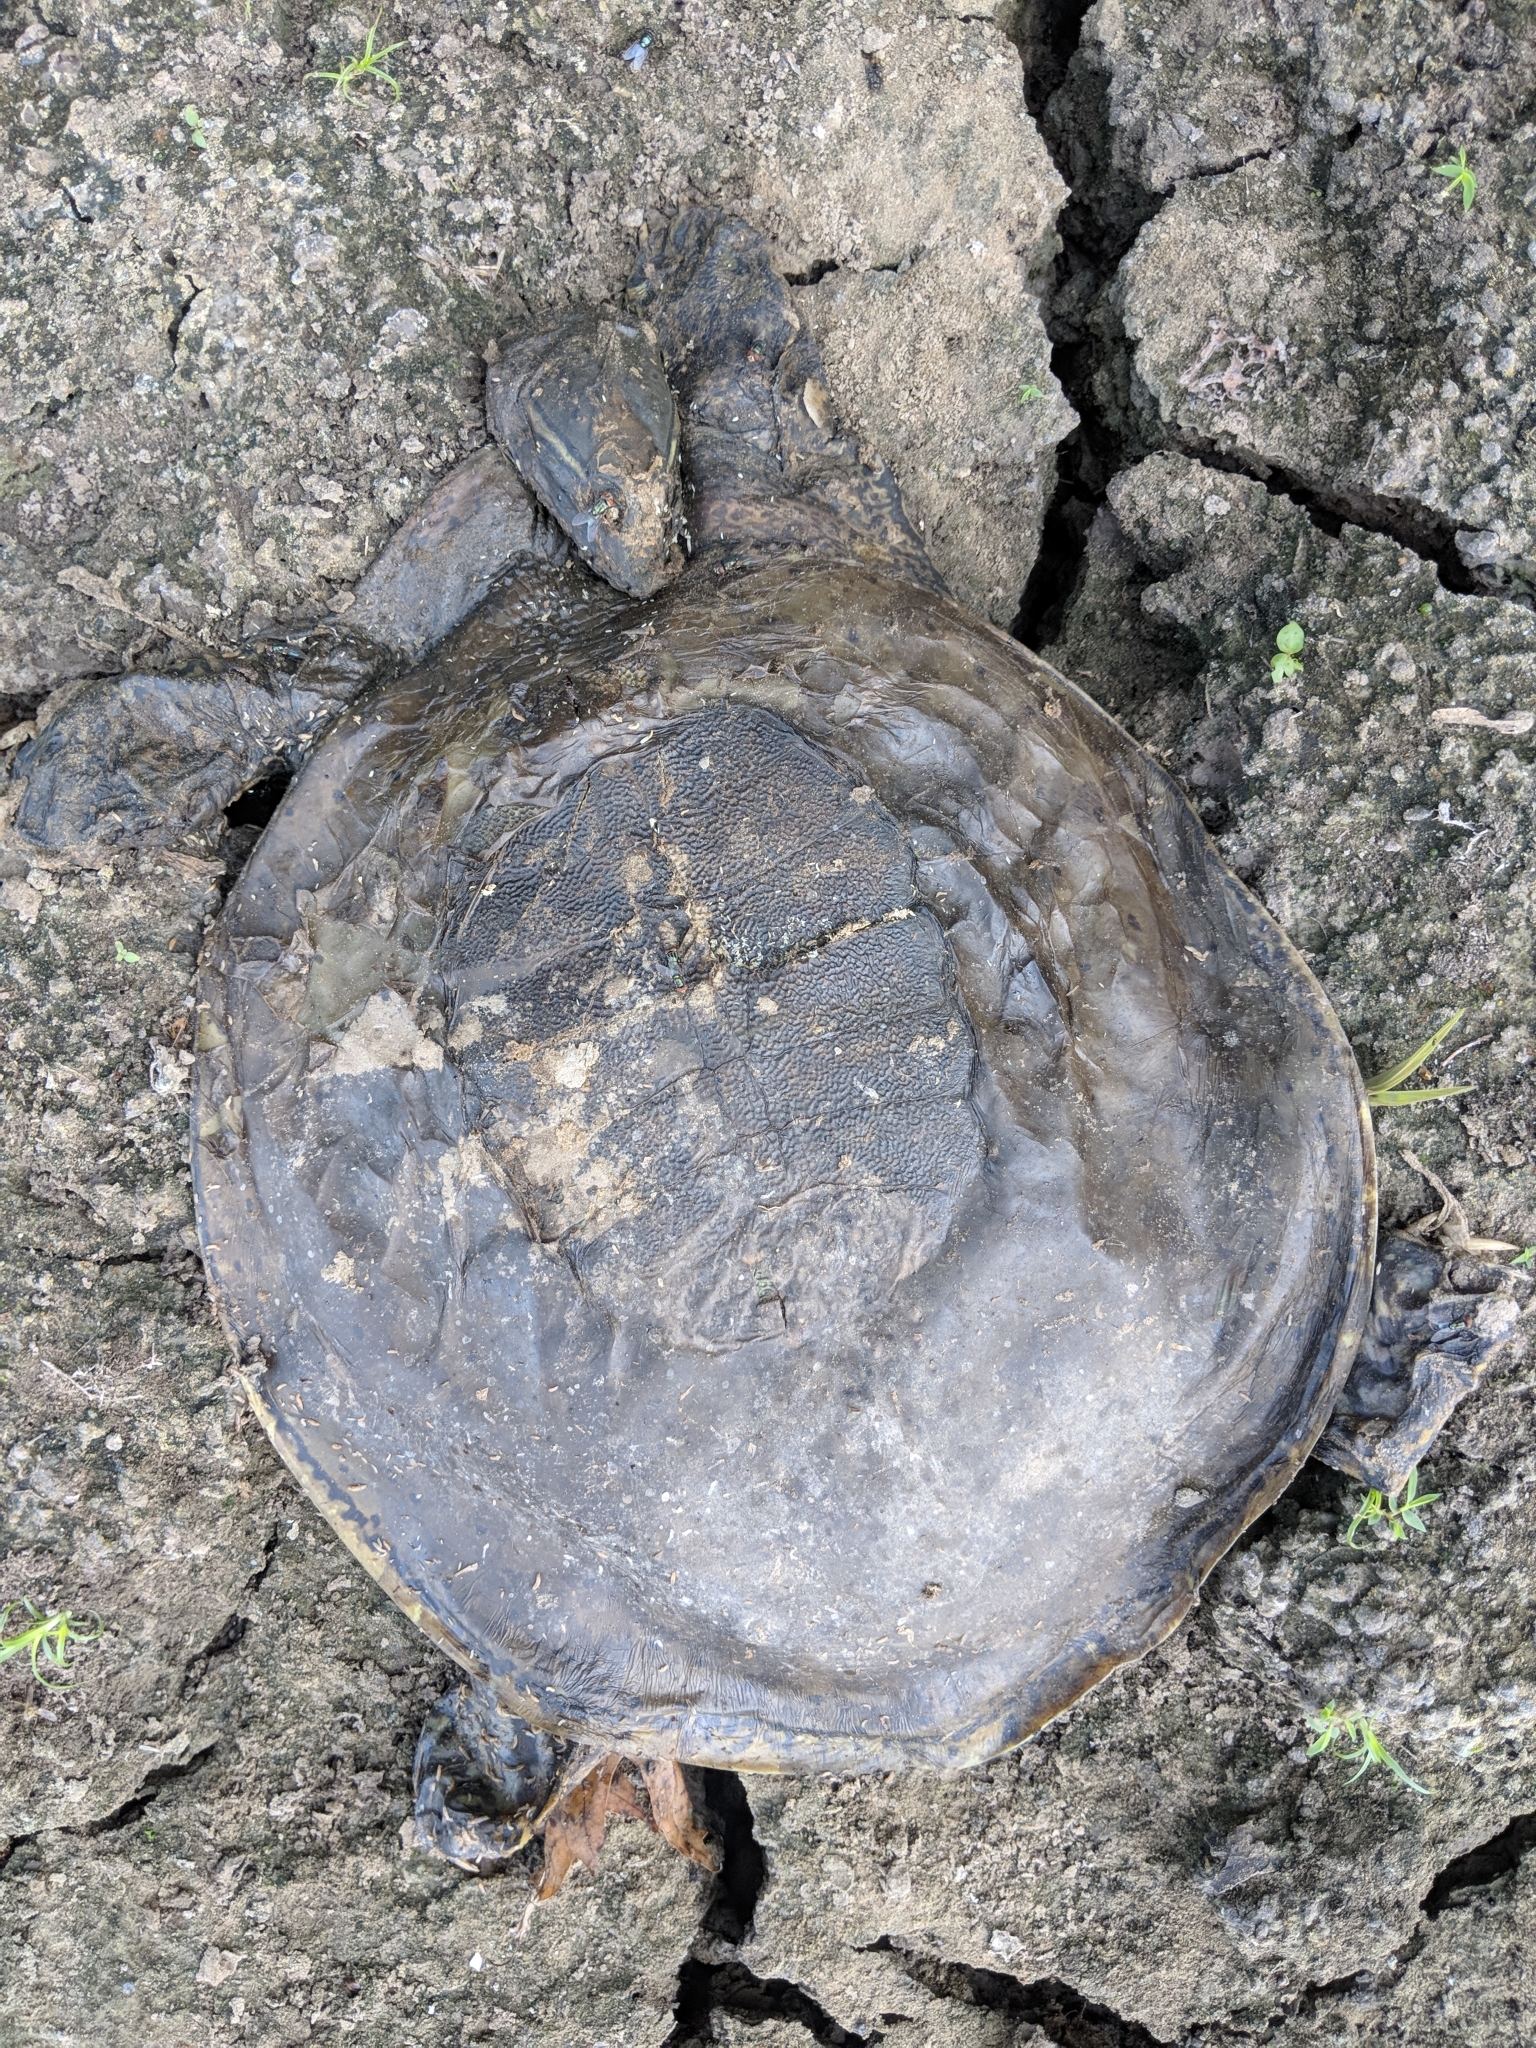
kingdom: Animalia
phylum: Chordata
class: Testudines
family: Trionychidae
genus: Apalone
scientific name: Apalone spinifera
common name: Spiny softshell turtle
